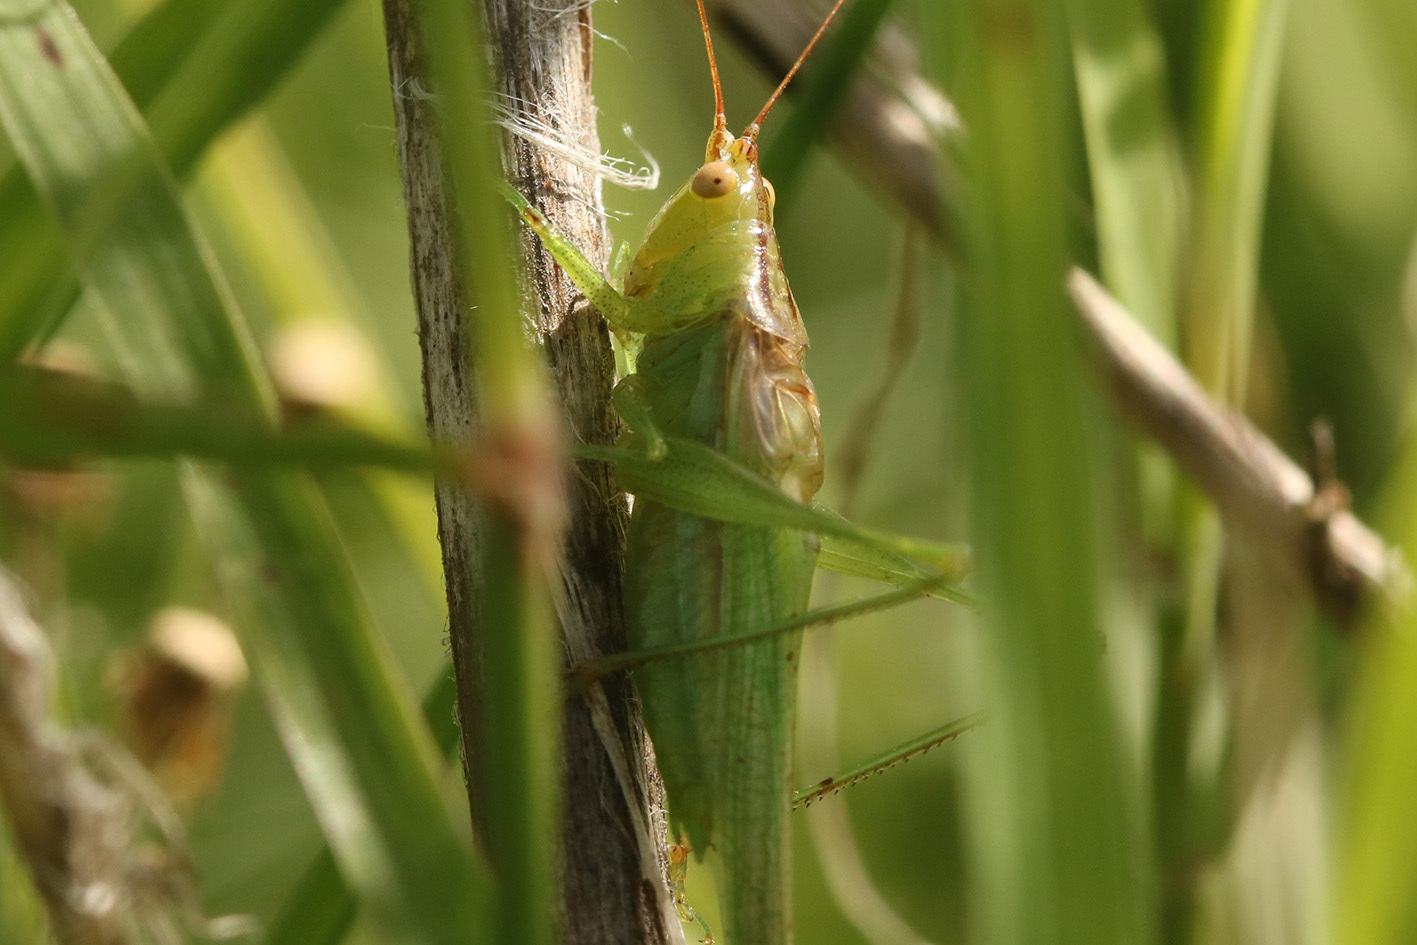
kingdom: Animalia
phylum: Arthropoda
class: Insecta
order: Orthoptera
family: Tettigoniidae
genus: Conocephalus
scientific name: Conocephalus longipes
